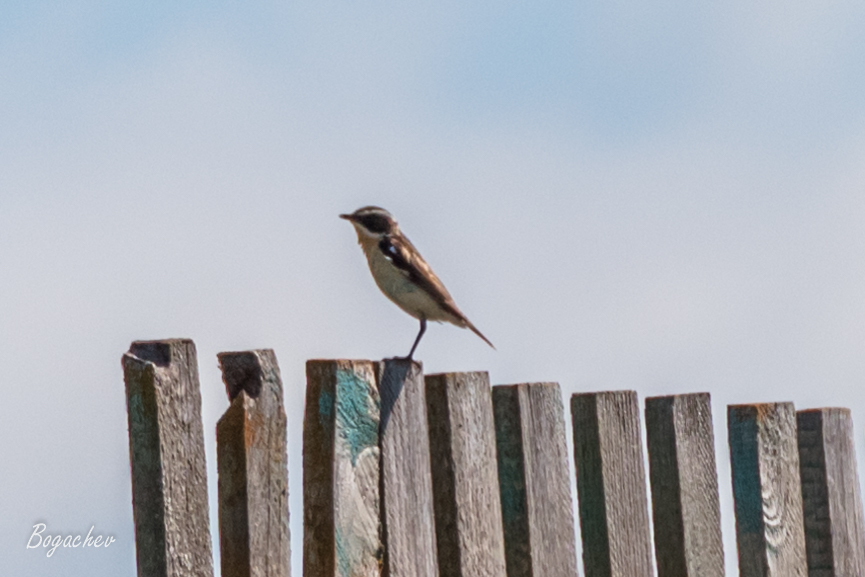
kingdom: Animalia
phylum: Chordata
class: Aves
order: Passeriformes
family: Muscicapidae
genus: Saxicola
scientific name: Saxicola rubetra
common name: Whinchat
